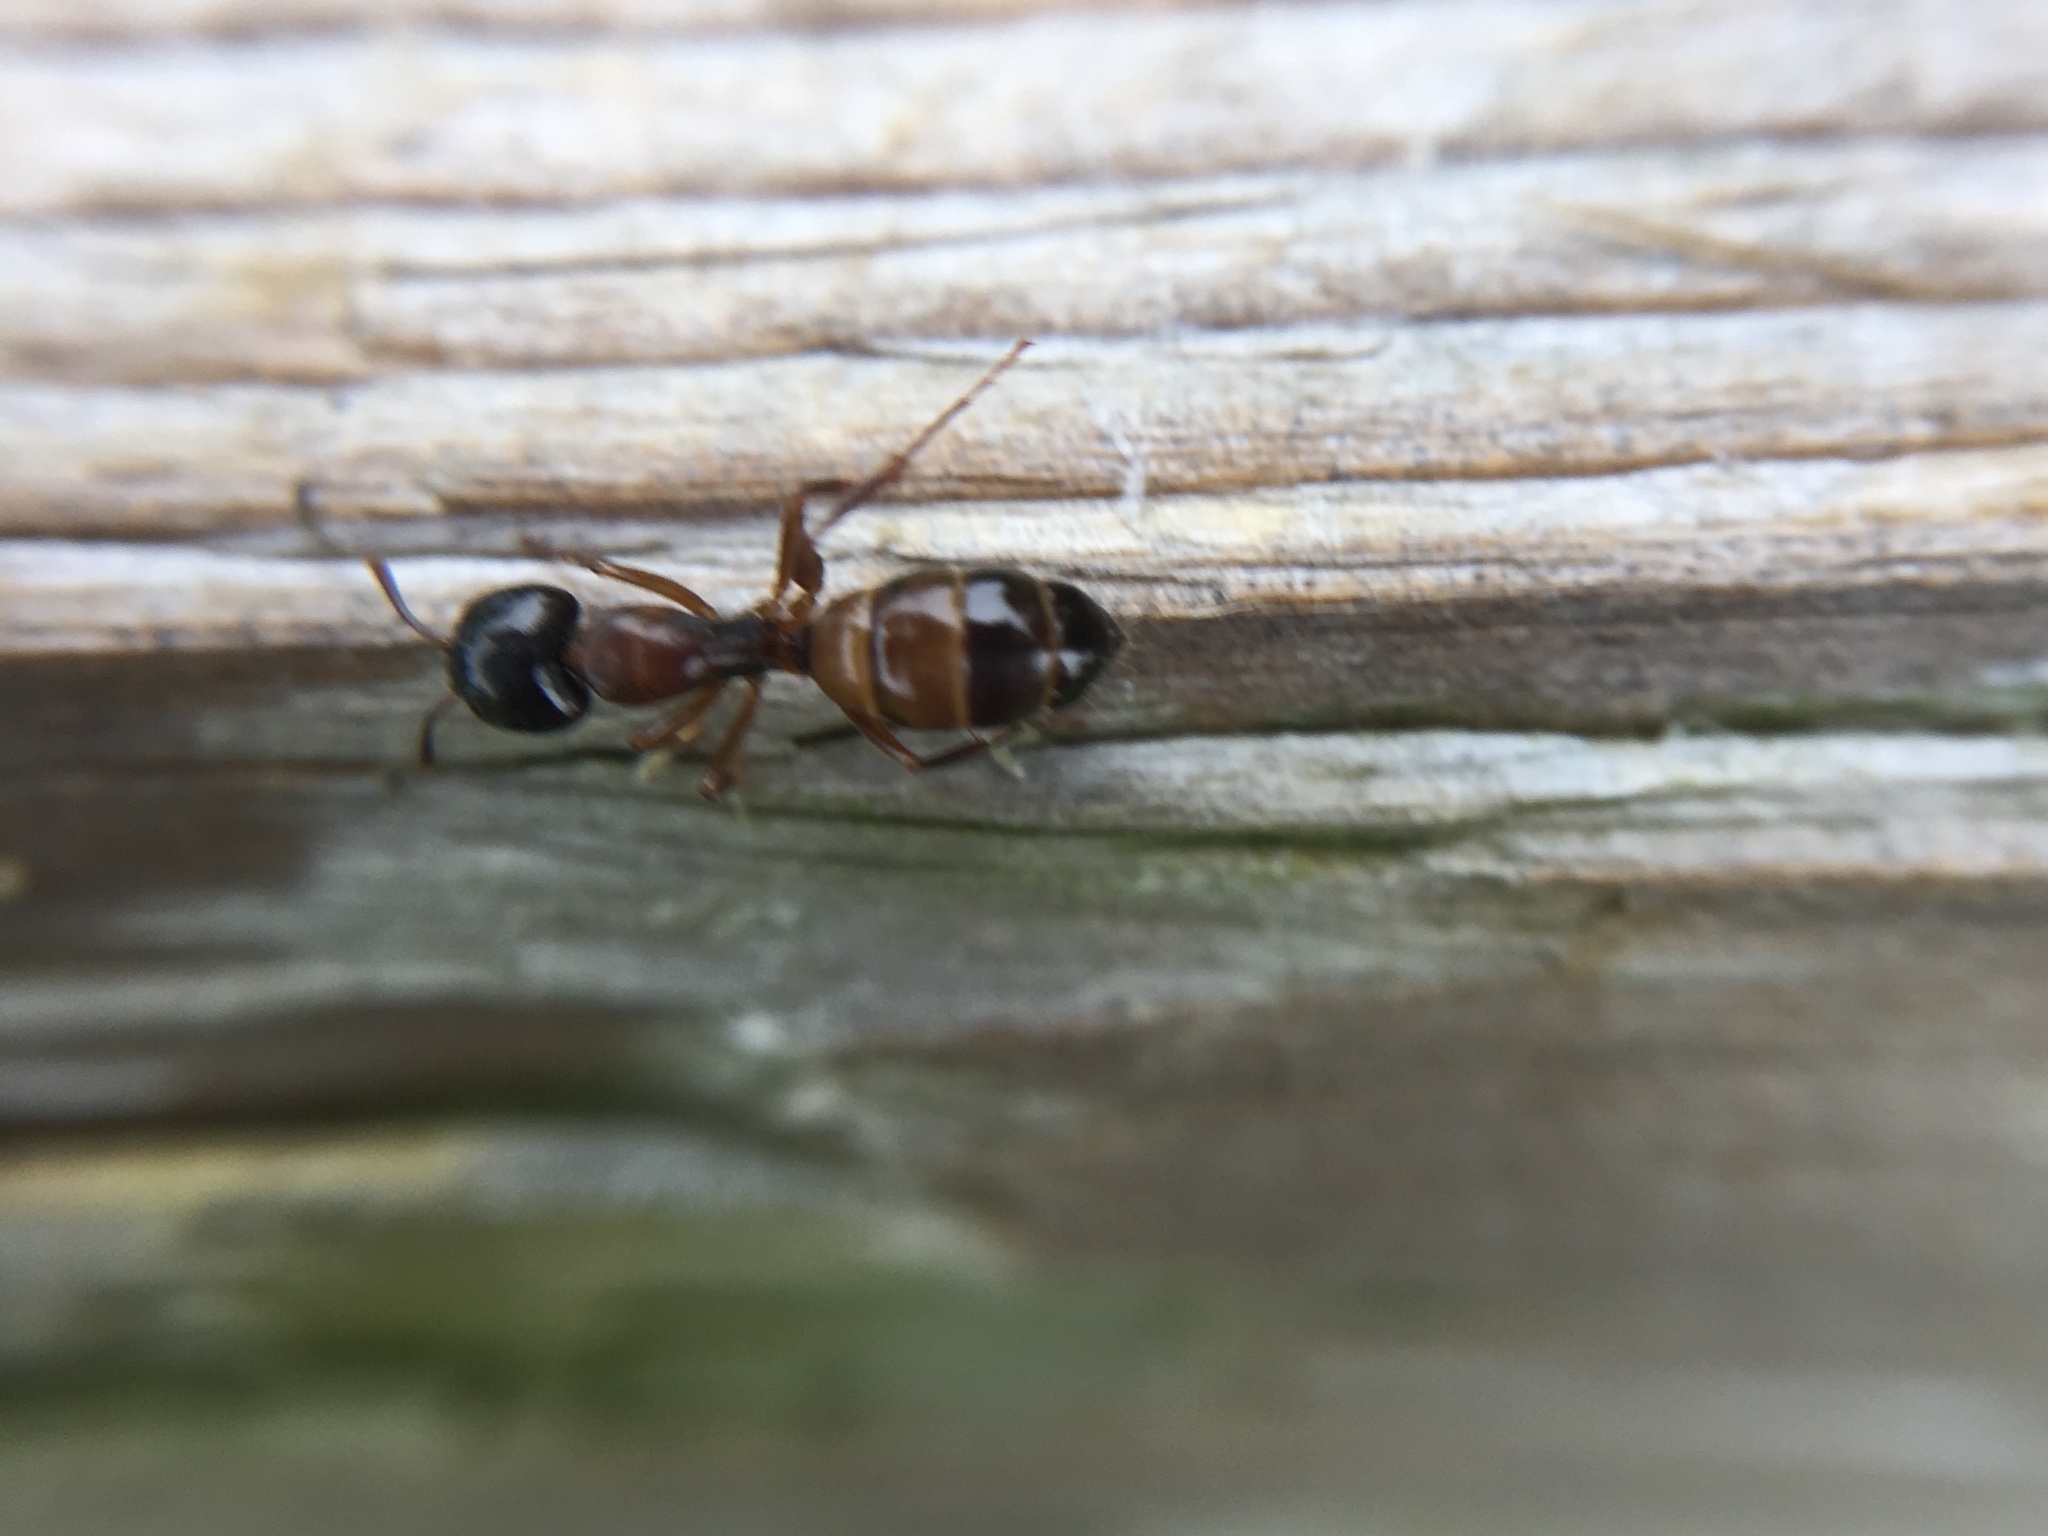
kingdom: Animalia
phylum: Arthropoda
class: Insecta
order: Hymenoptera
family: Formicidae
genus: Camponotus
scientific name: Camponotus nearcticus
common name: Smaller carpenter ant
